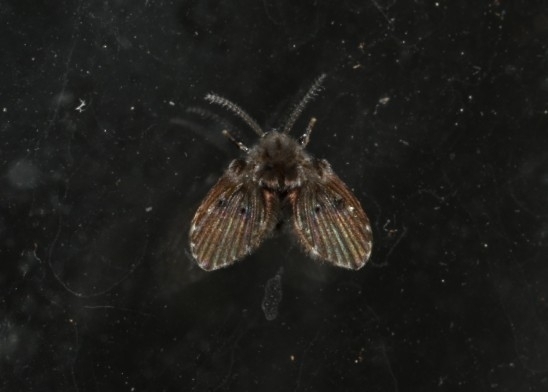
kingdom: Animalia
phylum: Arthropoda
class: Insecta
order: Diptera
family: Psychodidae
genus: Clogmia
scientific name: Clogmia albipunctatus
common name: White-spotted moth fly
